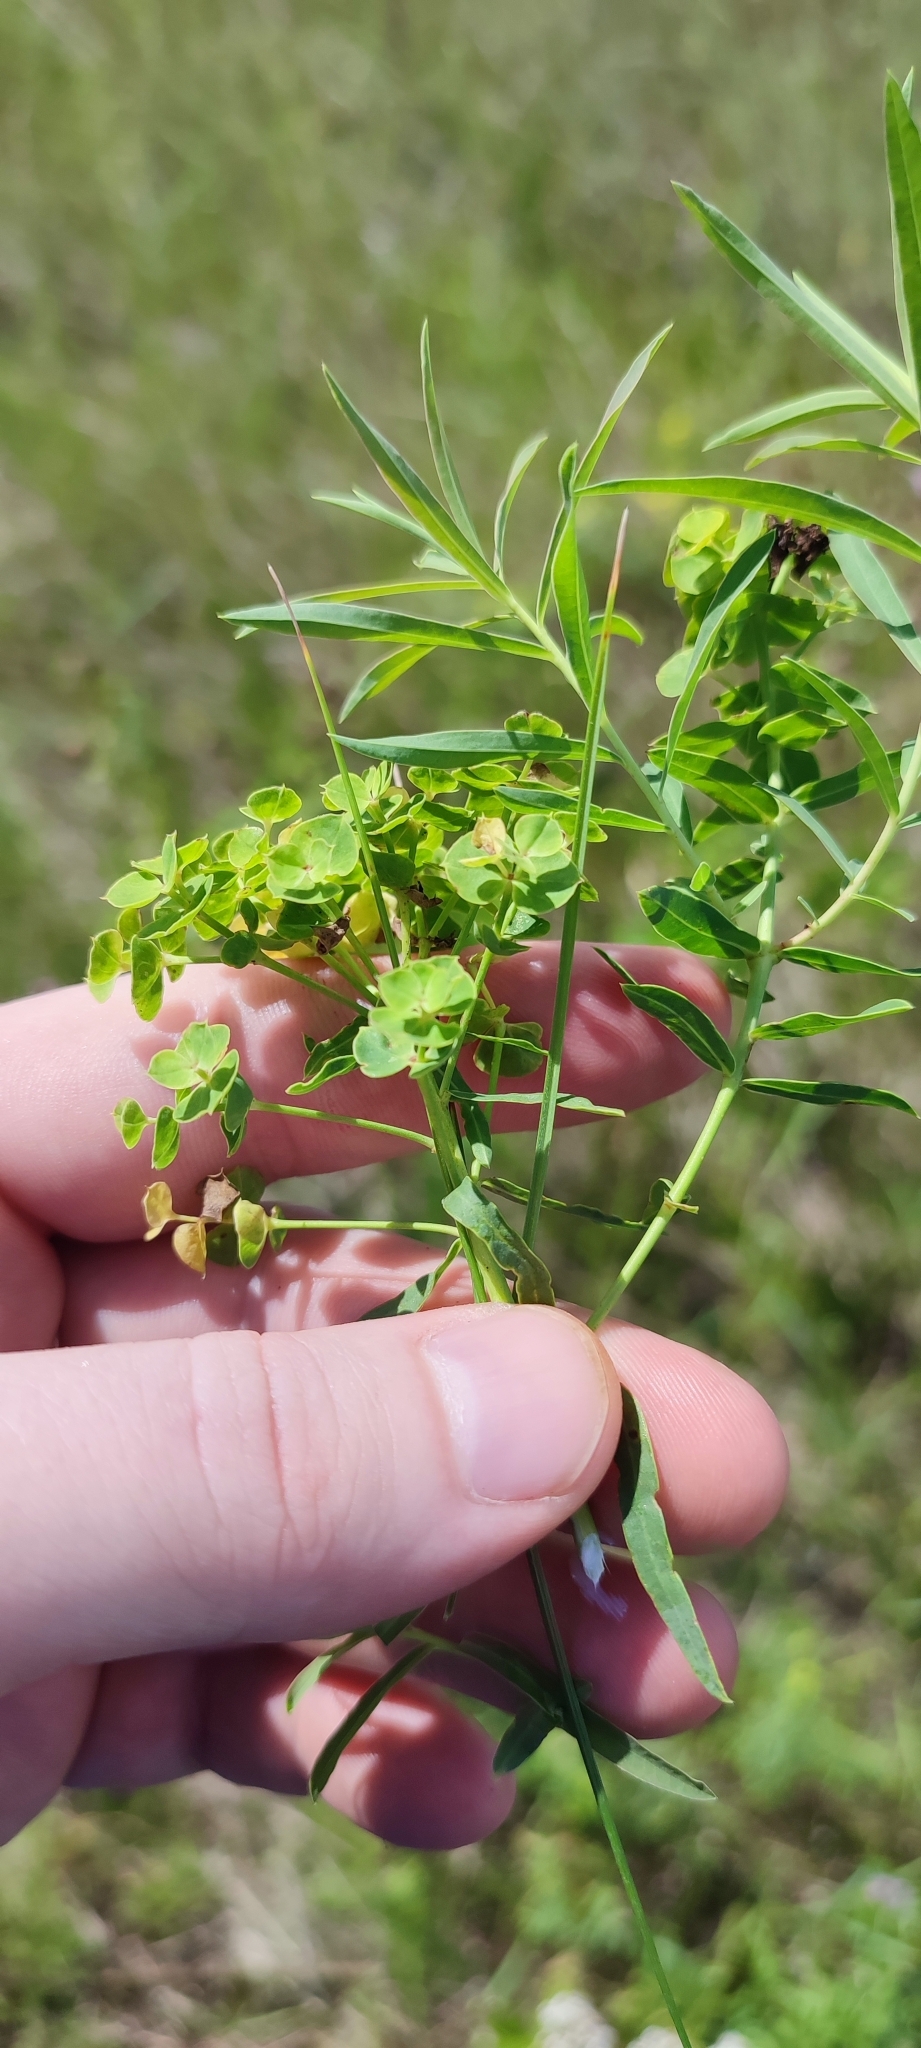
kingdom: Plantae
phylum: Tracheophyta
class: Magnoliopsida
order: Malpighiales
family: Euphorbiaceae
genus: Euphorbia
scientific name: Euphorbia virgata
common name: Leafy spurge
